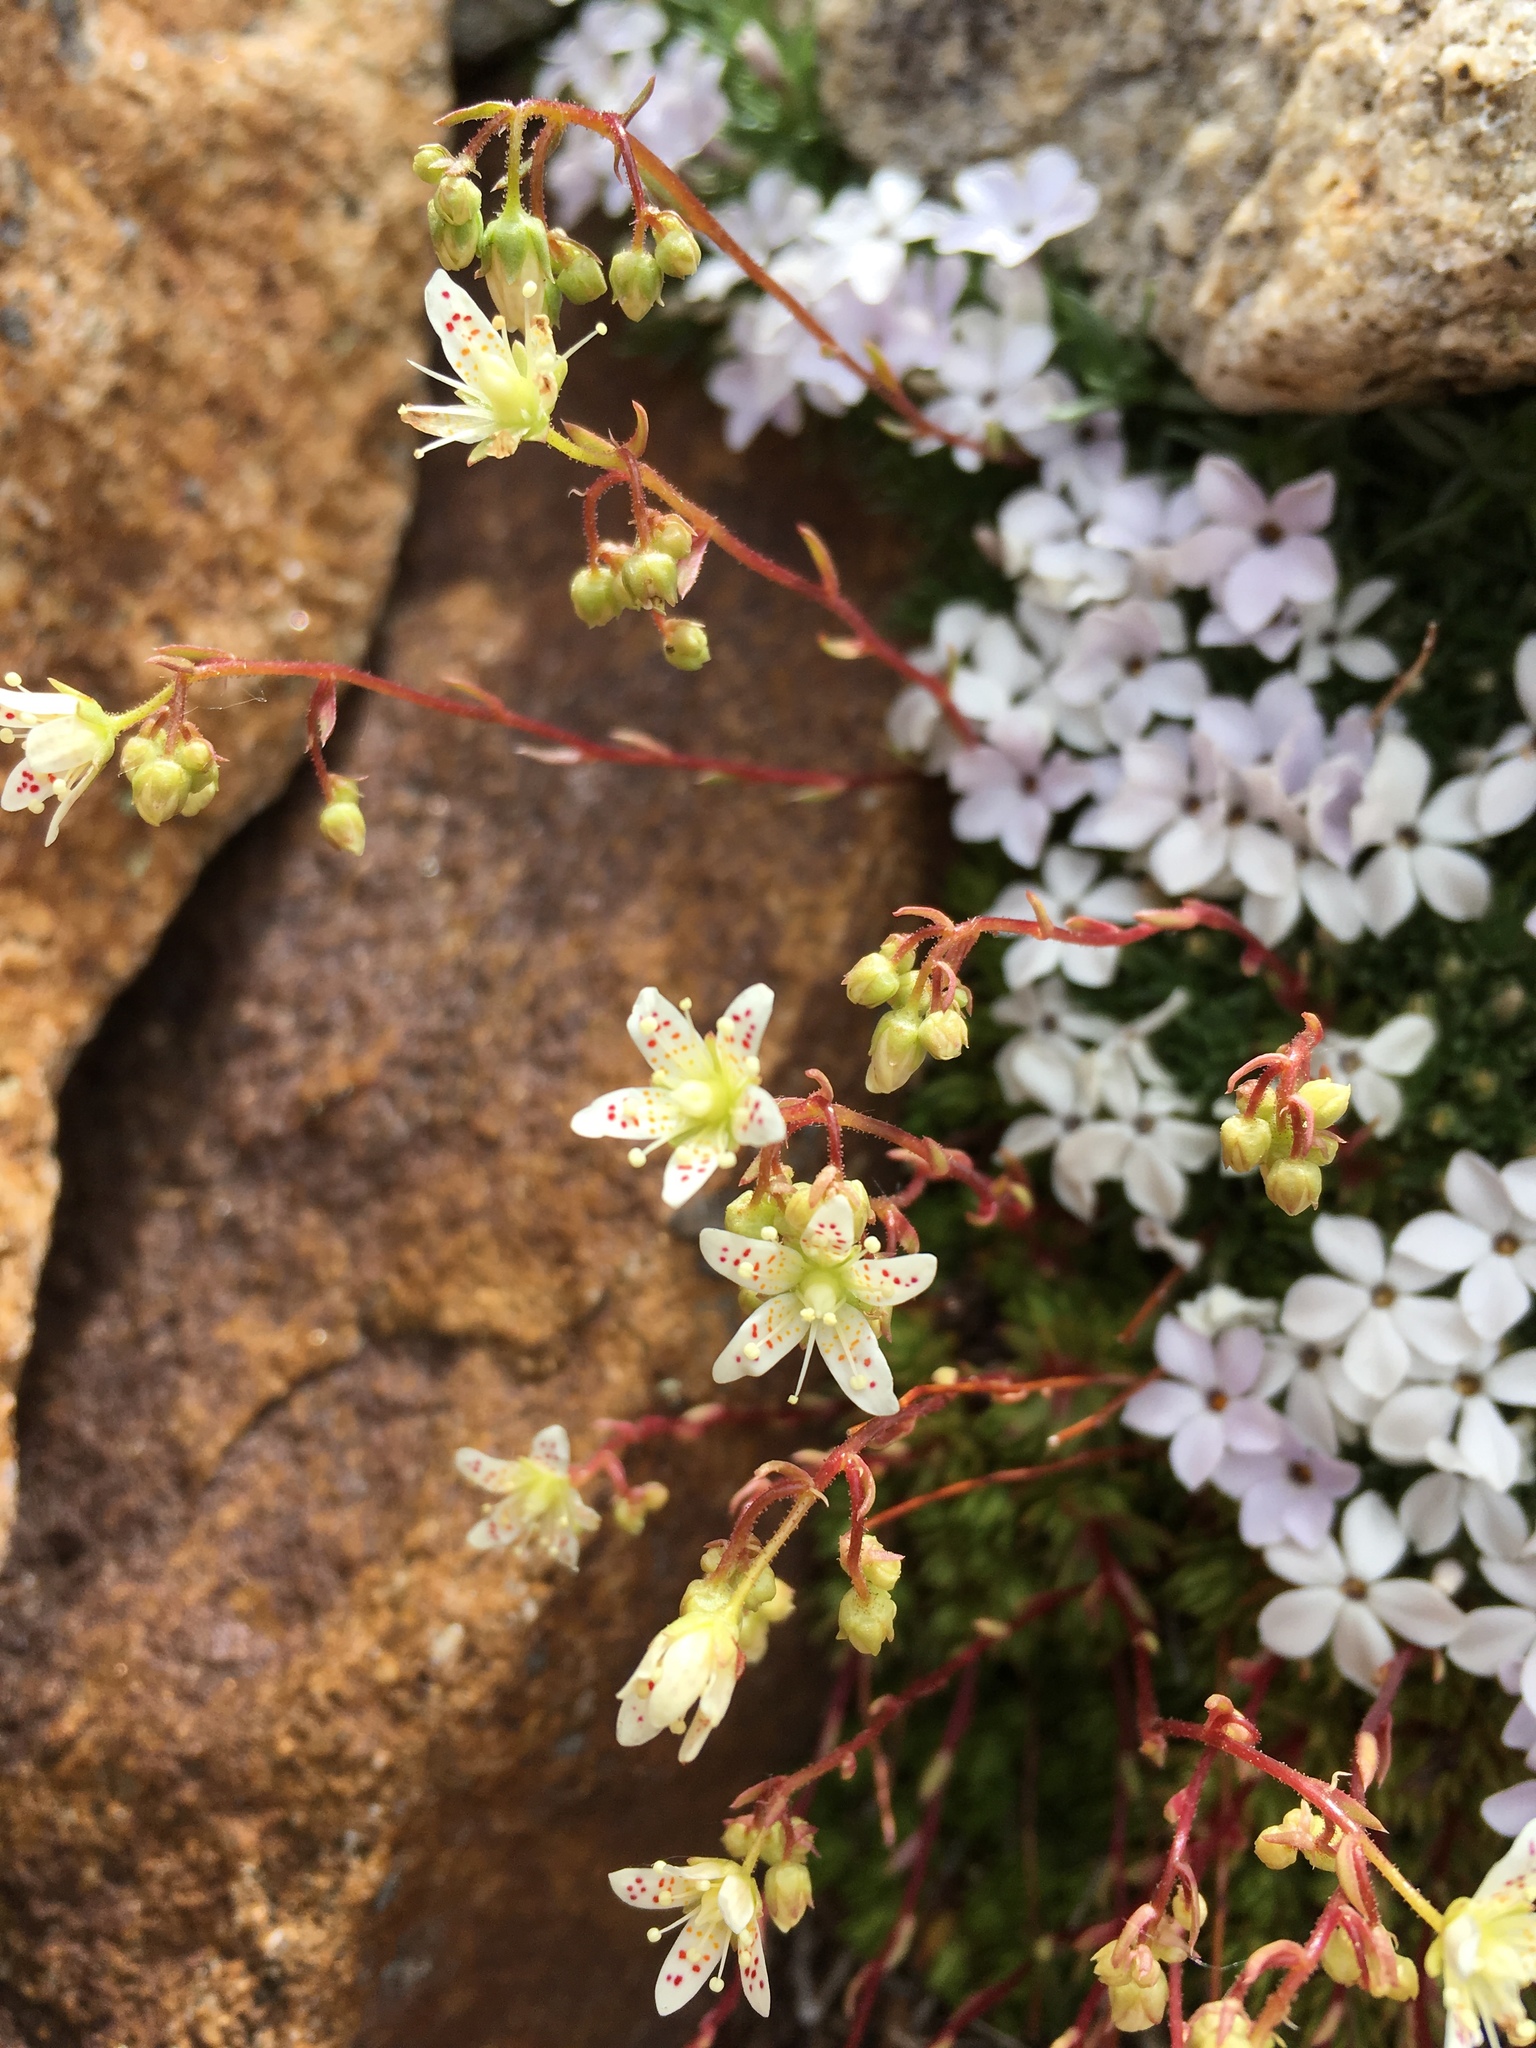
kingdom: Plantae
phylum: Tracheophyta
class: Magnoliopsida
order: Saxifragales
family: Saxifragaceae
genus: Saxifraga
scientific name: Saxifraga bronchialis
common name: Matted saxifrage
